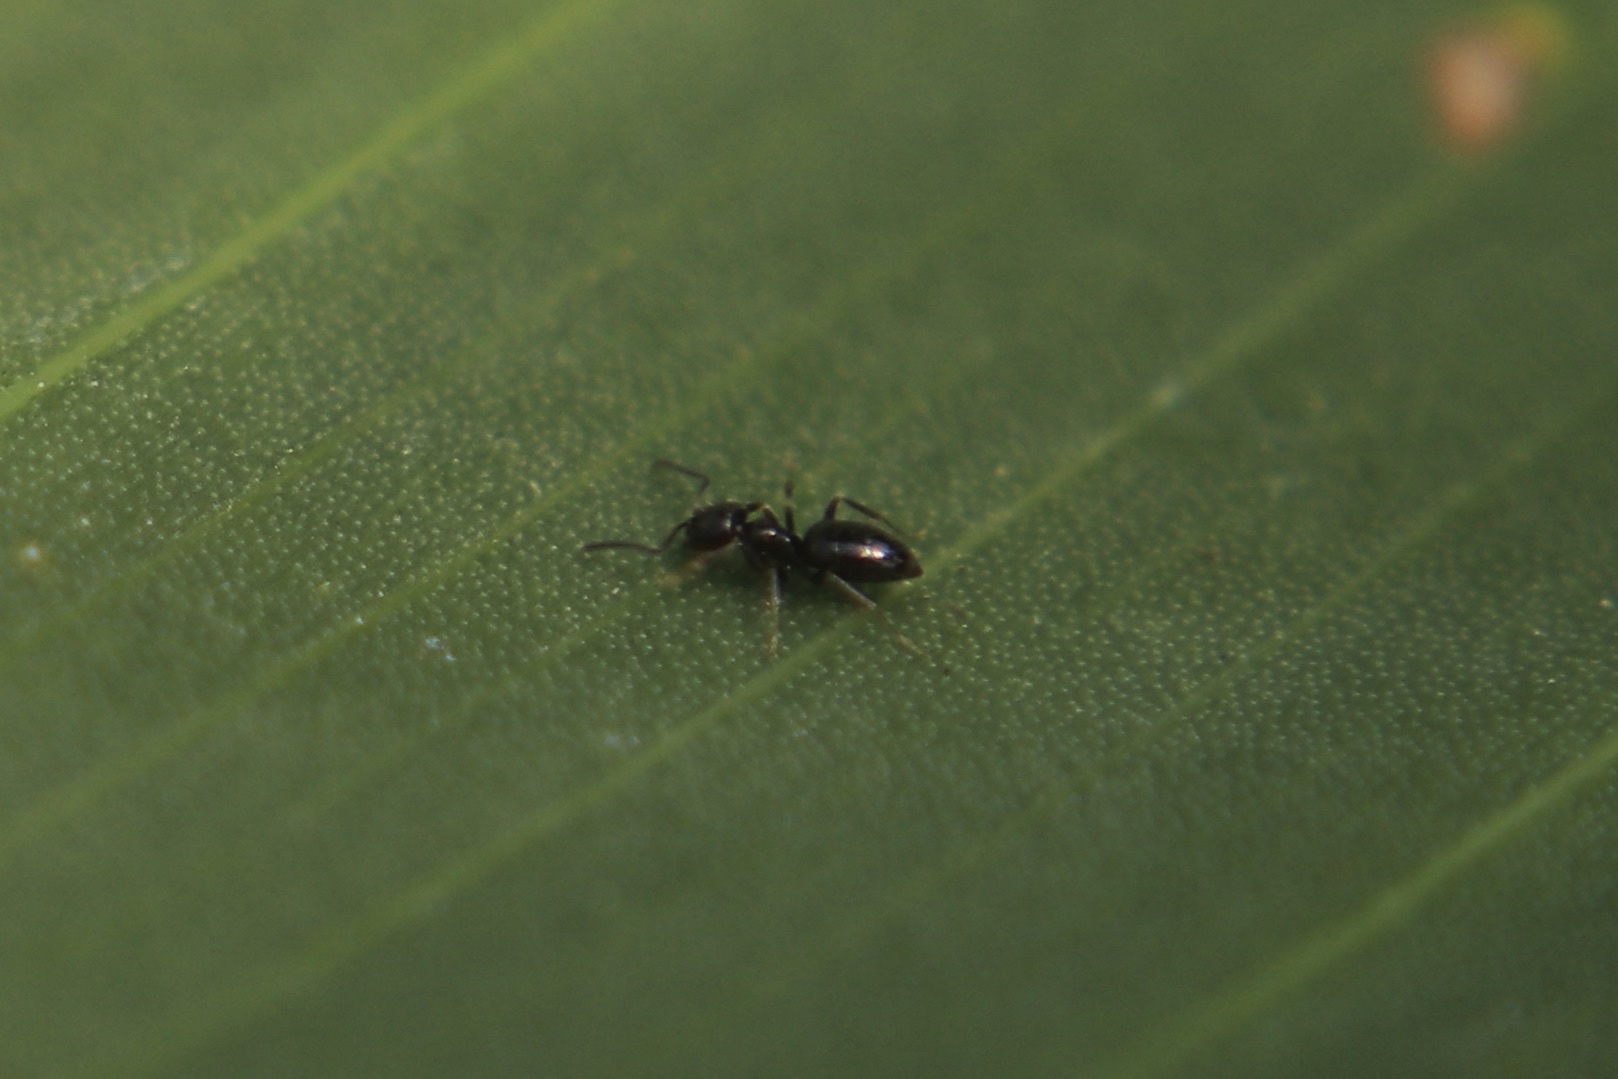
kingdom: Animalia
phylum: Arthropoda
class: Insecta
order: Hymenoptera
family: Formicidae
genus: Brachymyrmex
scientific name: Brachymyrmex patagonicus
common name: Dark rover ant
